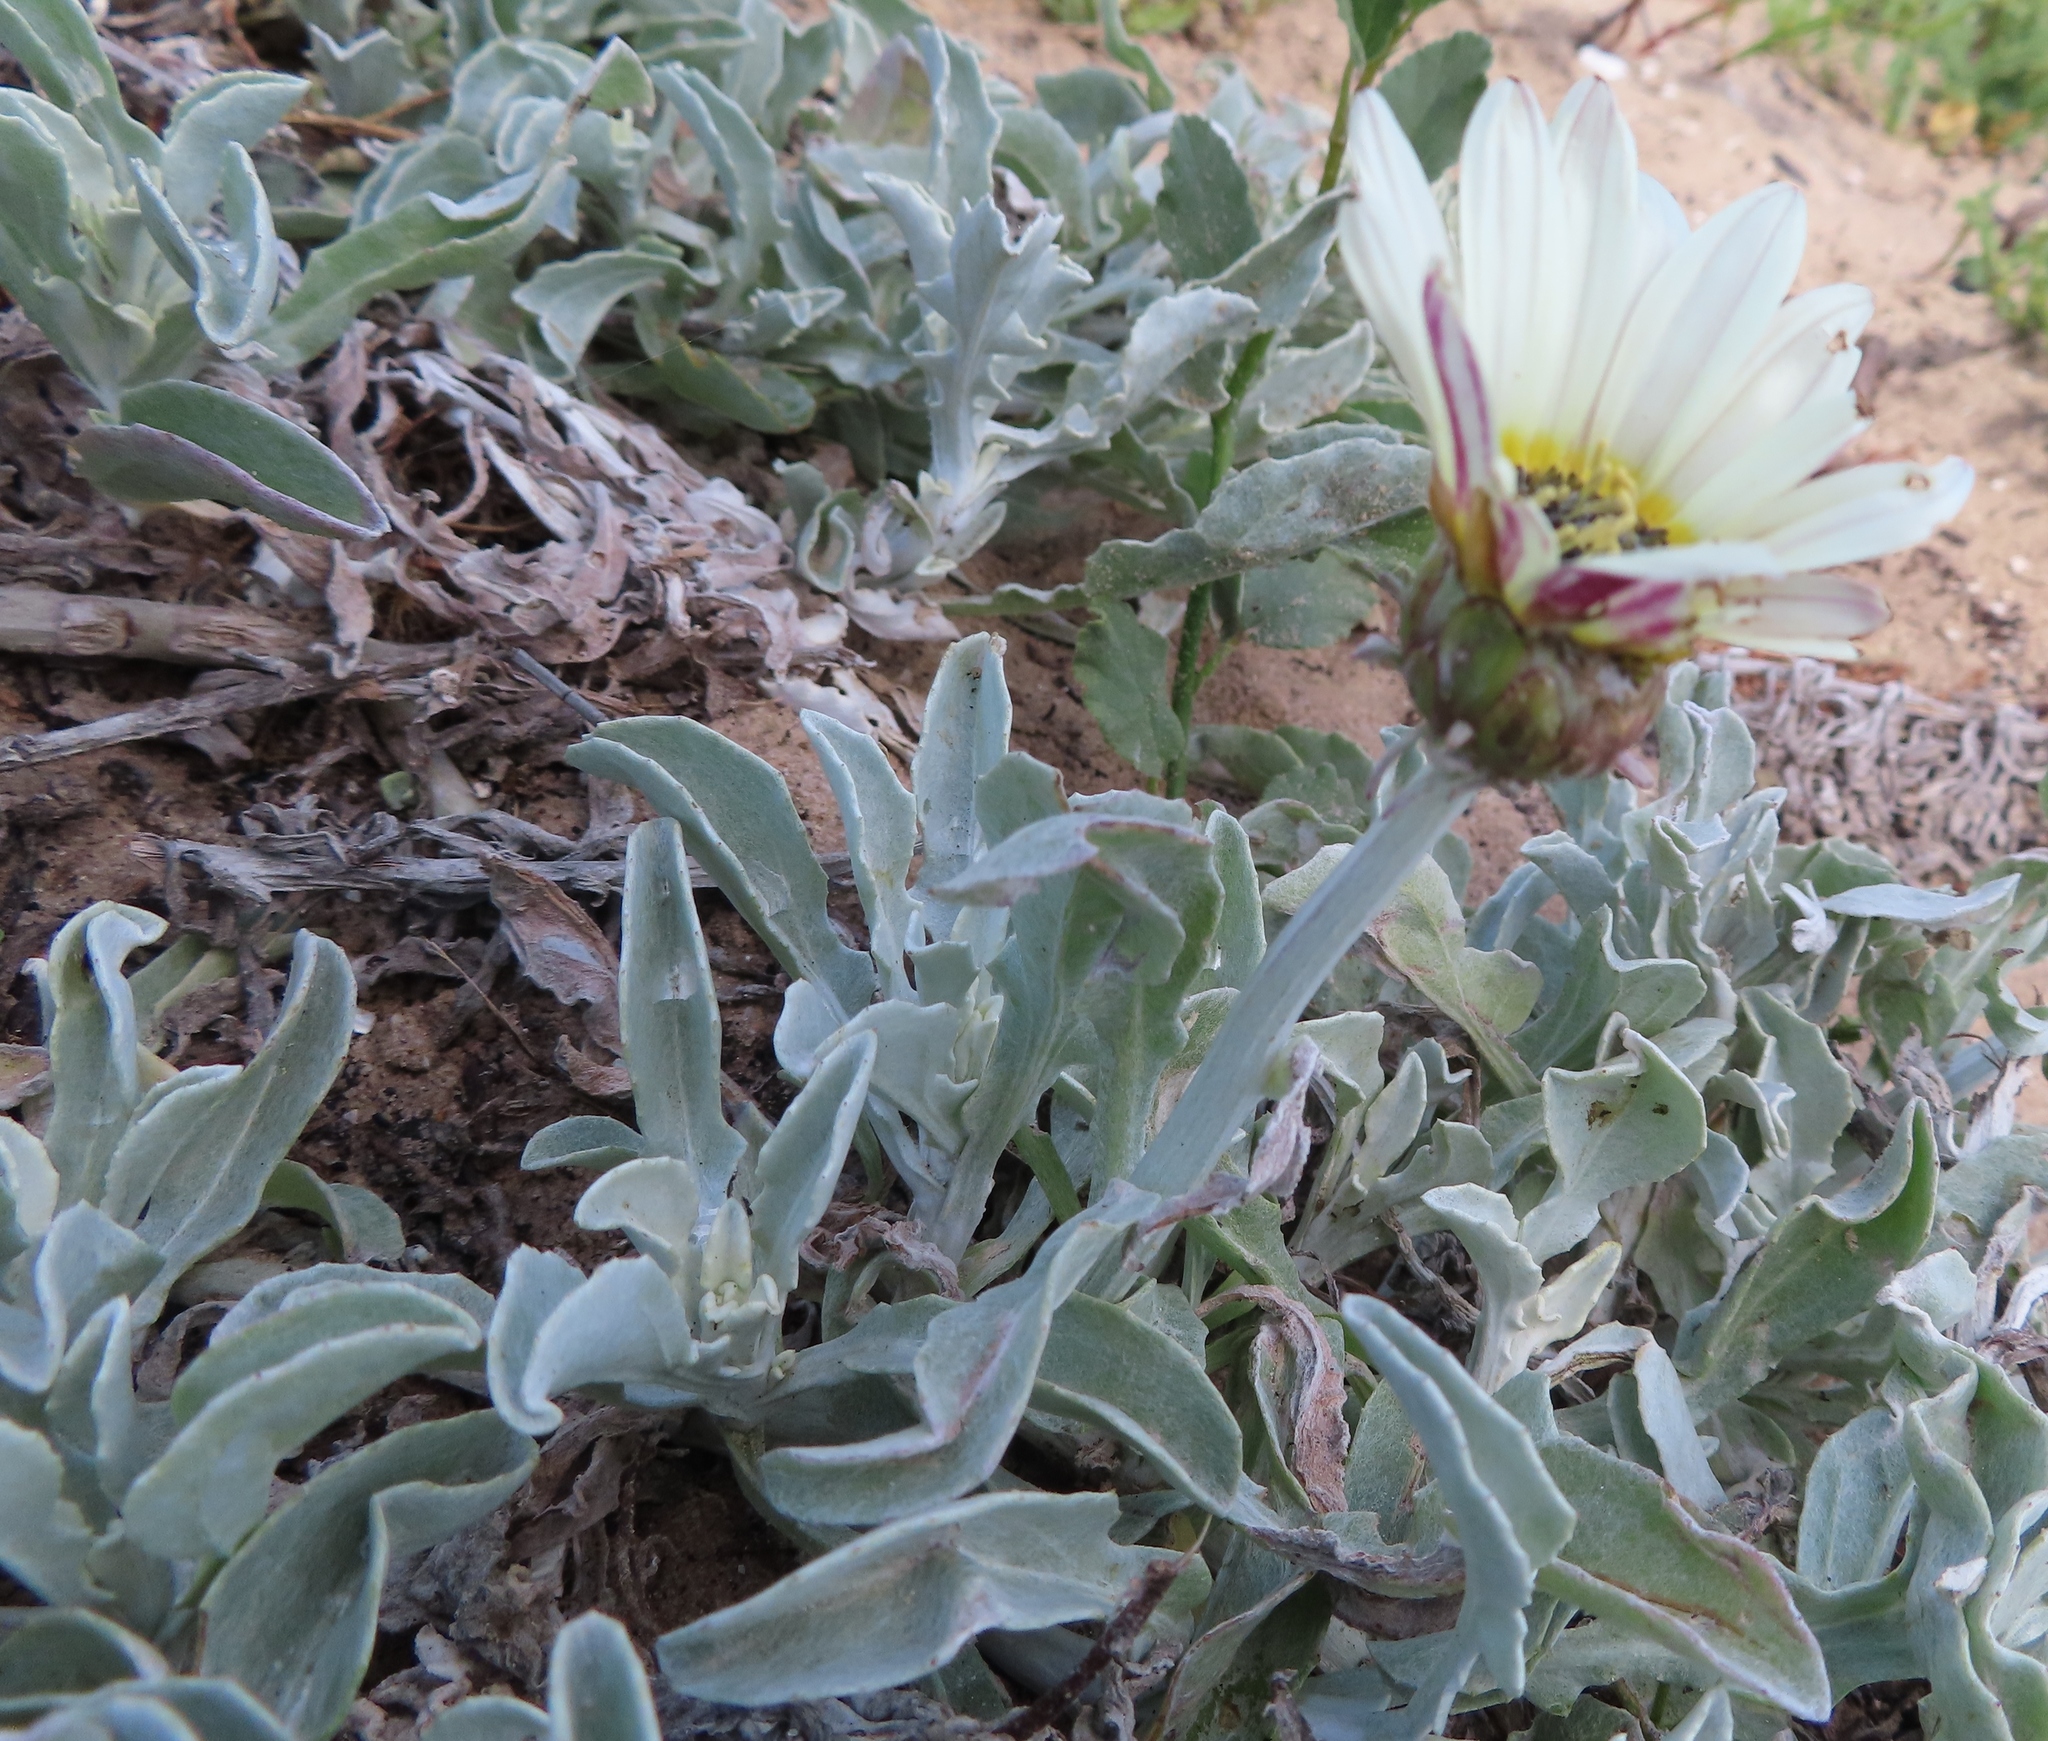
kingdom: Plantae
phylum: Tracheophyta
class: Magnoliopsida
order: Asterales
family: Asteraceae
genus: Arctotis
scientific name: Arctotis stoechadifolia
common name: African daisy
